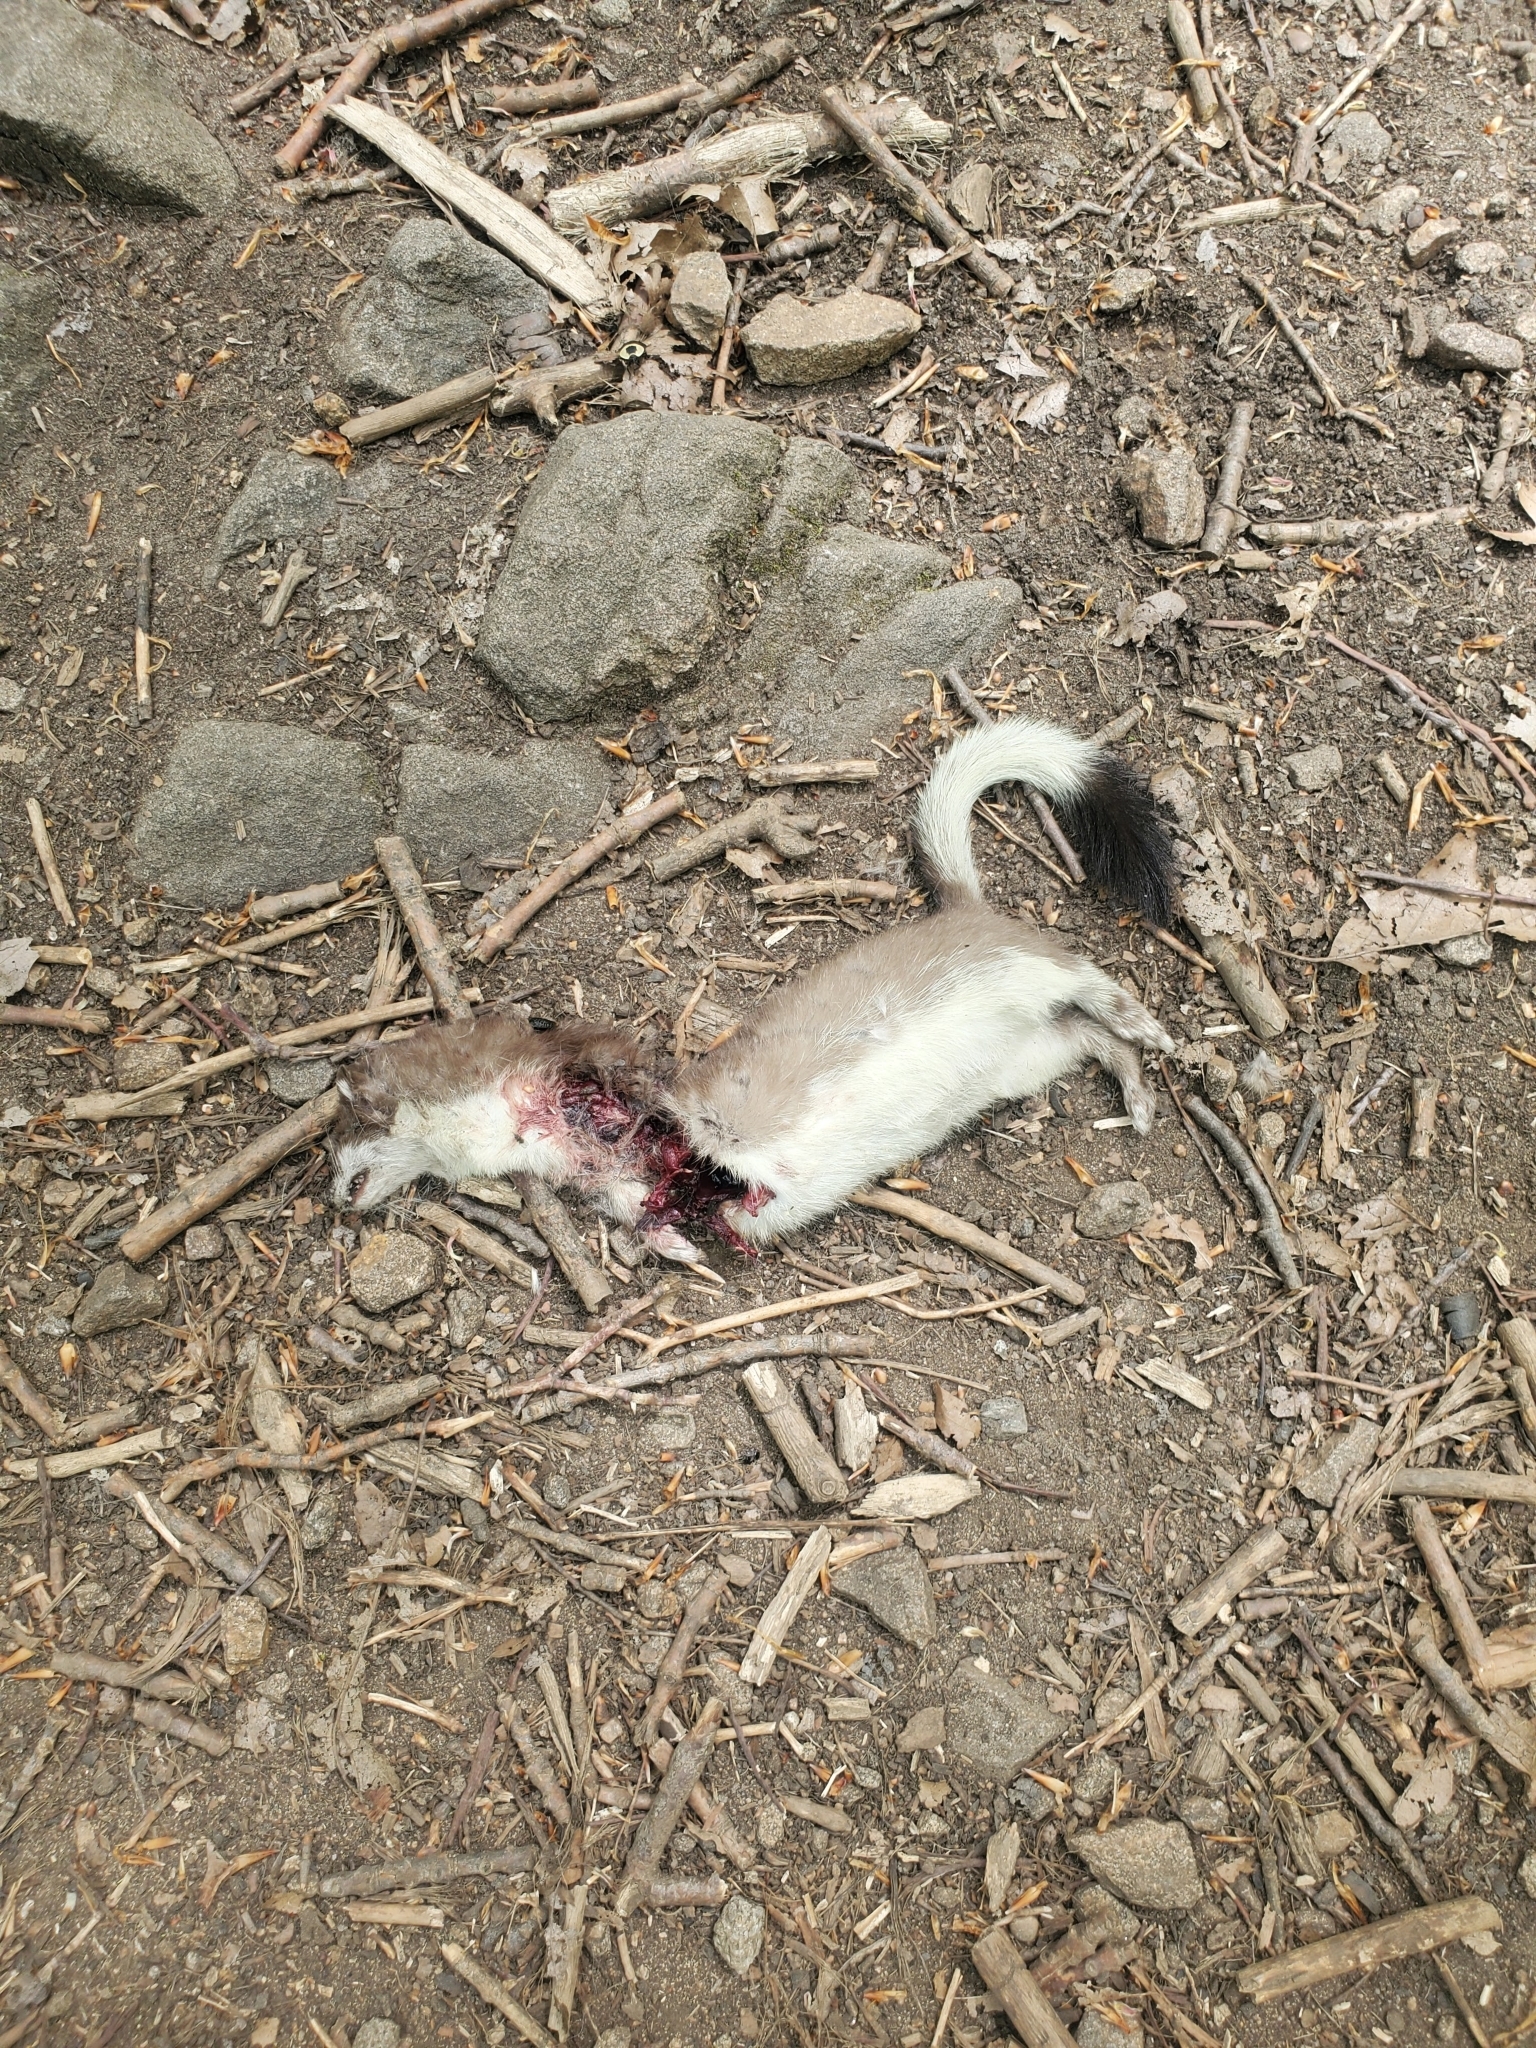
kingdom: Animalia
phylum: Chordata
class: Mammalia
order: Carnivora
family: Mustelidae
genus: Mustela
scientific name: Mustela erminea
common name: Stoat
